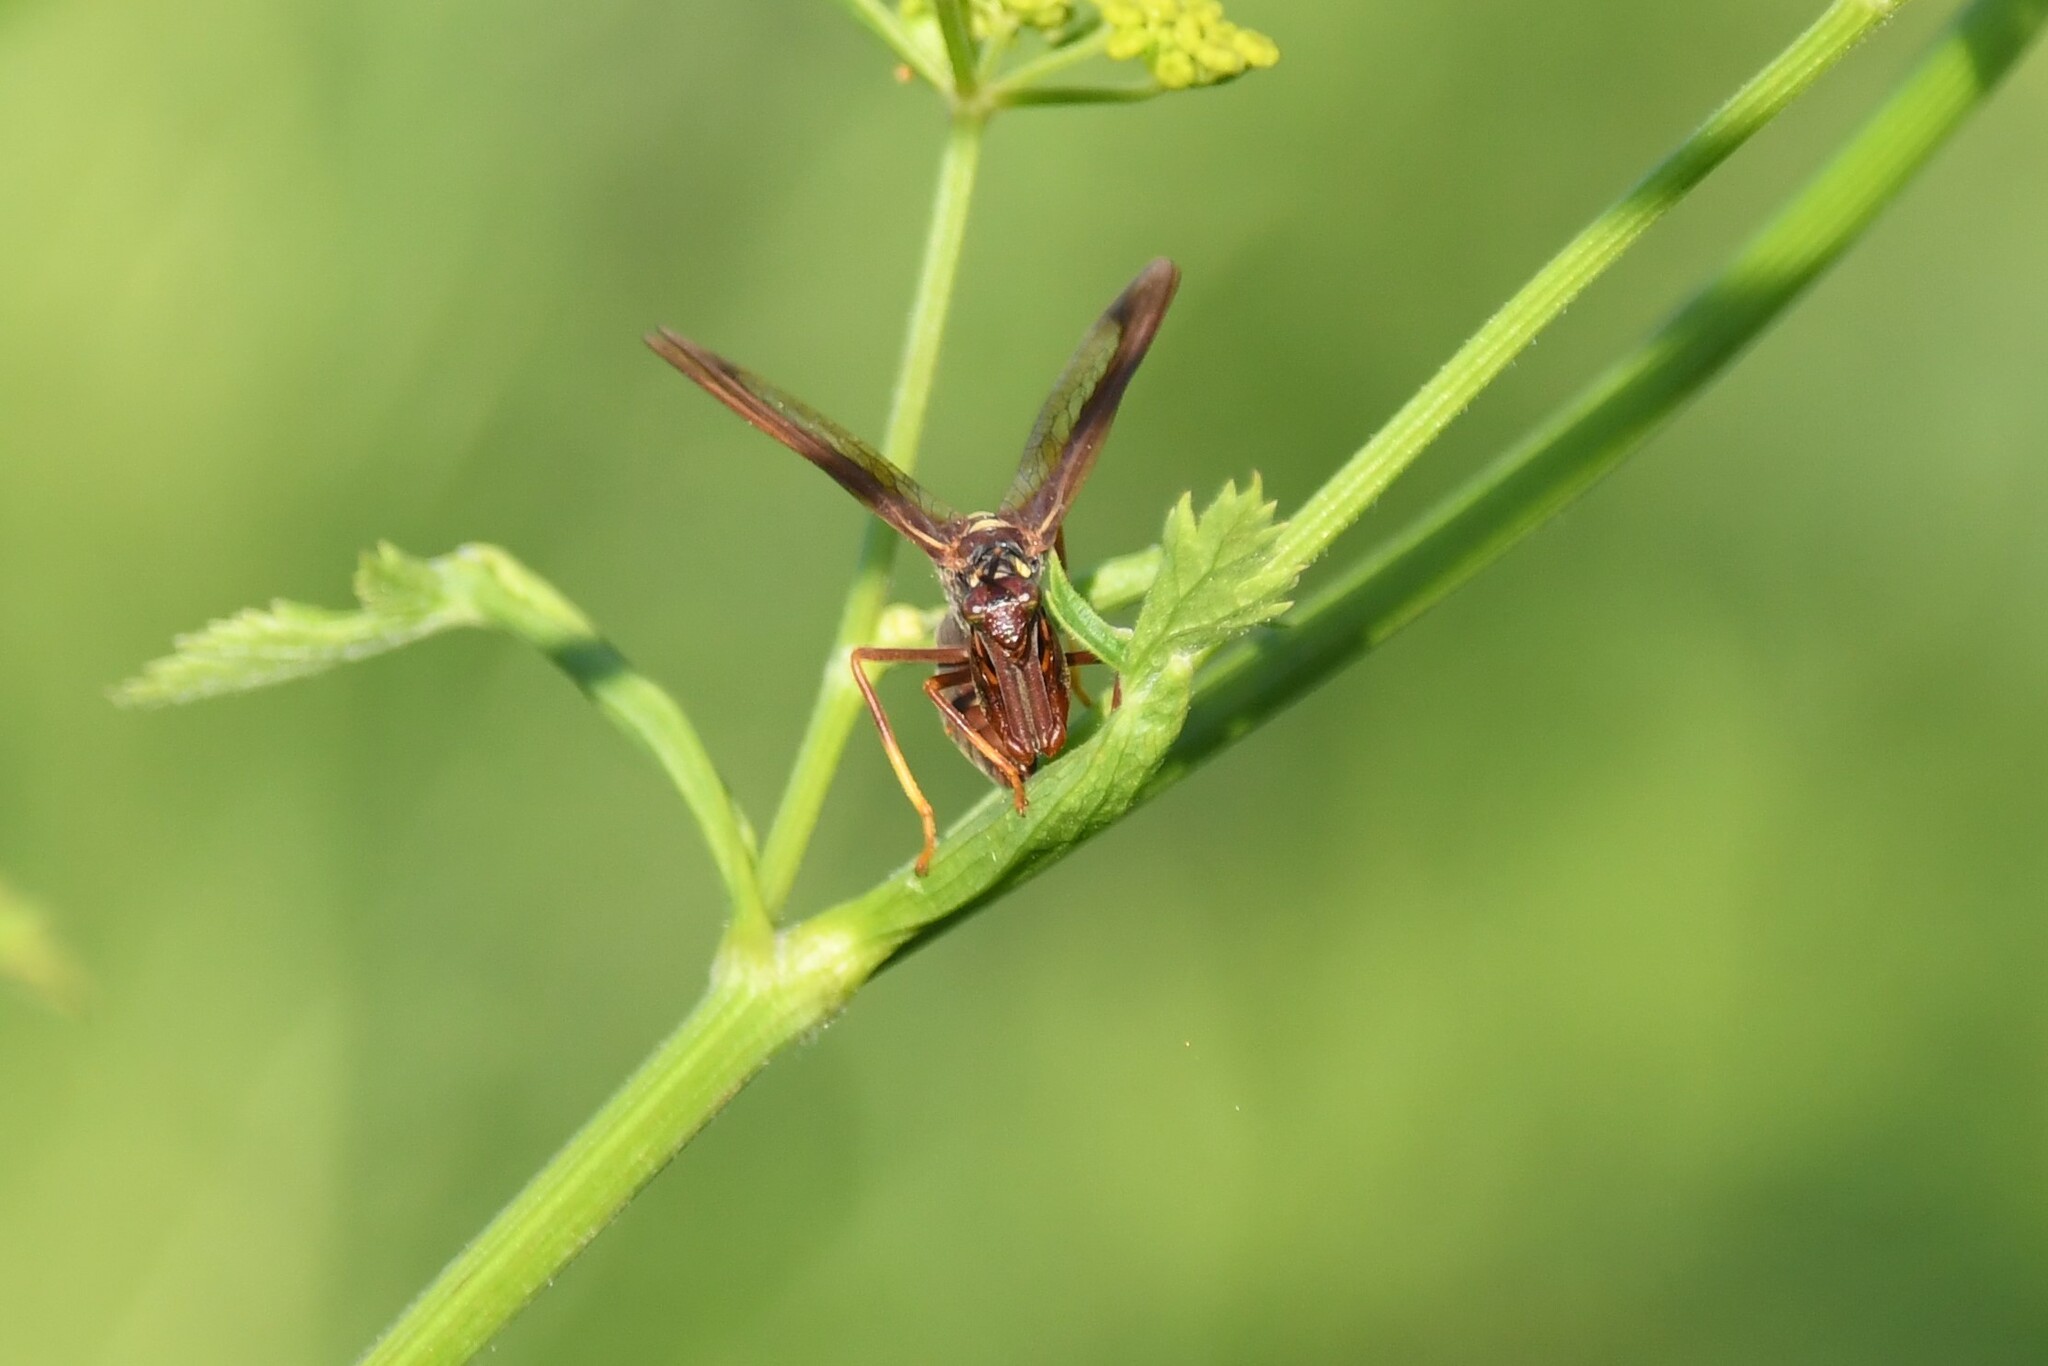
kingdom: Animalia
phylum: Arthropoda
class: Insecta
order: Neuroptera
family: Mantispidae
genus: Climaciella
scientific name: Climaciella brunnea
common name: Brown wasp mantidfly
